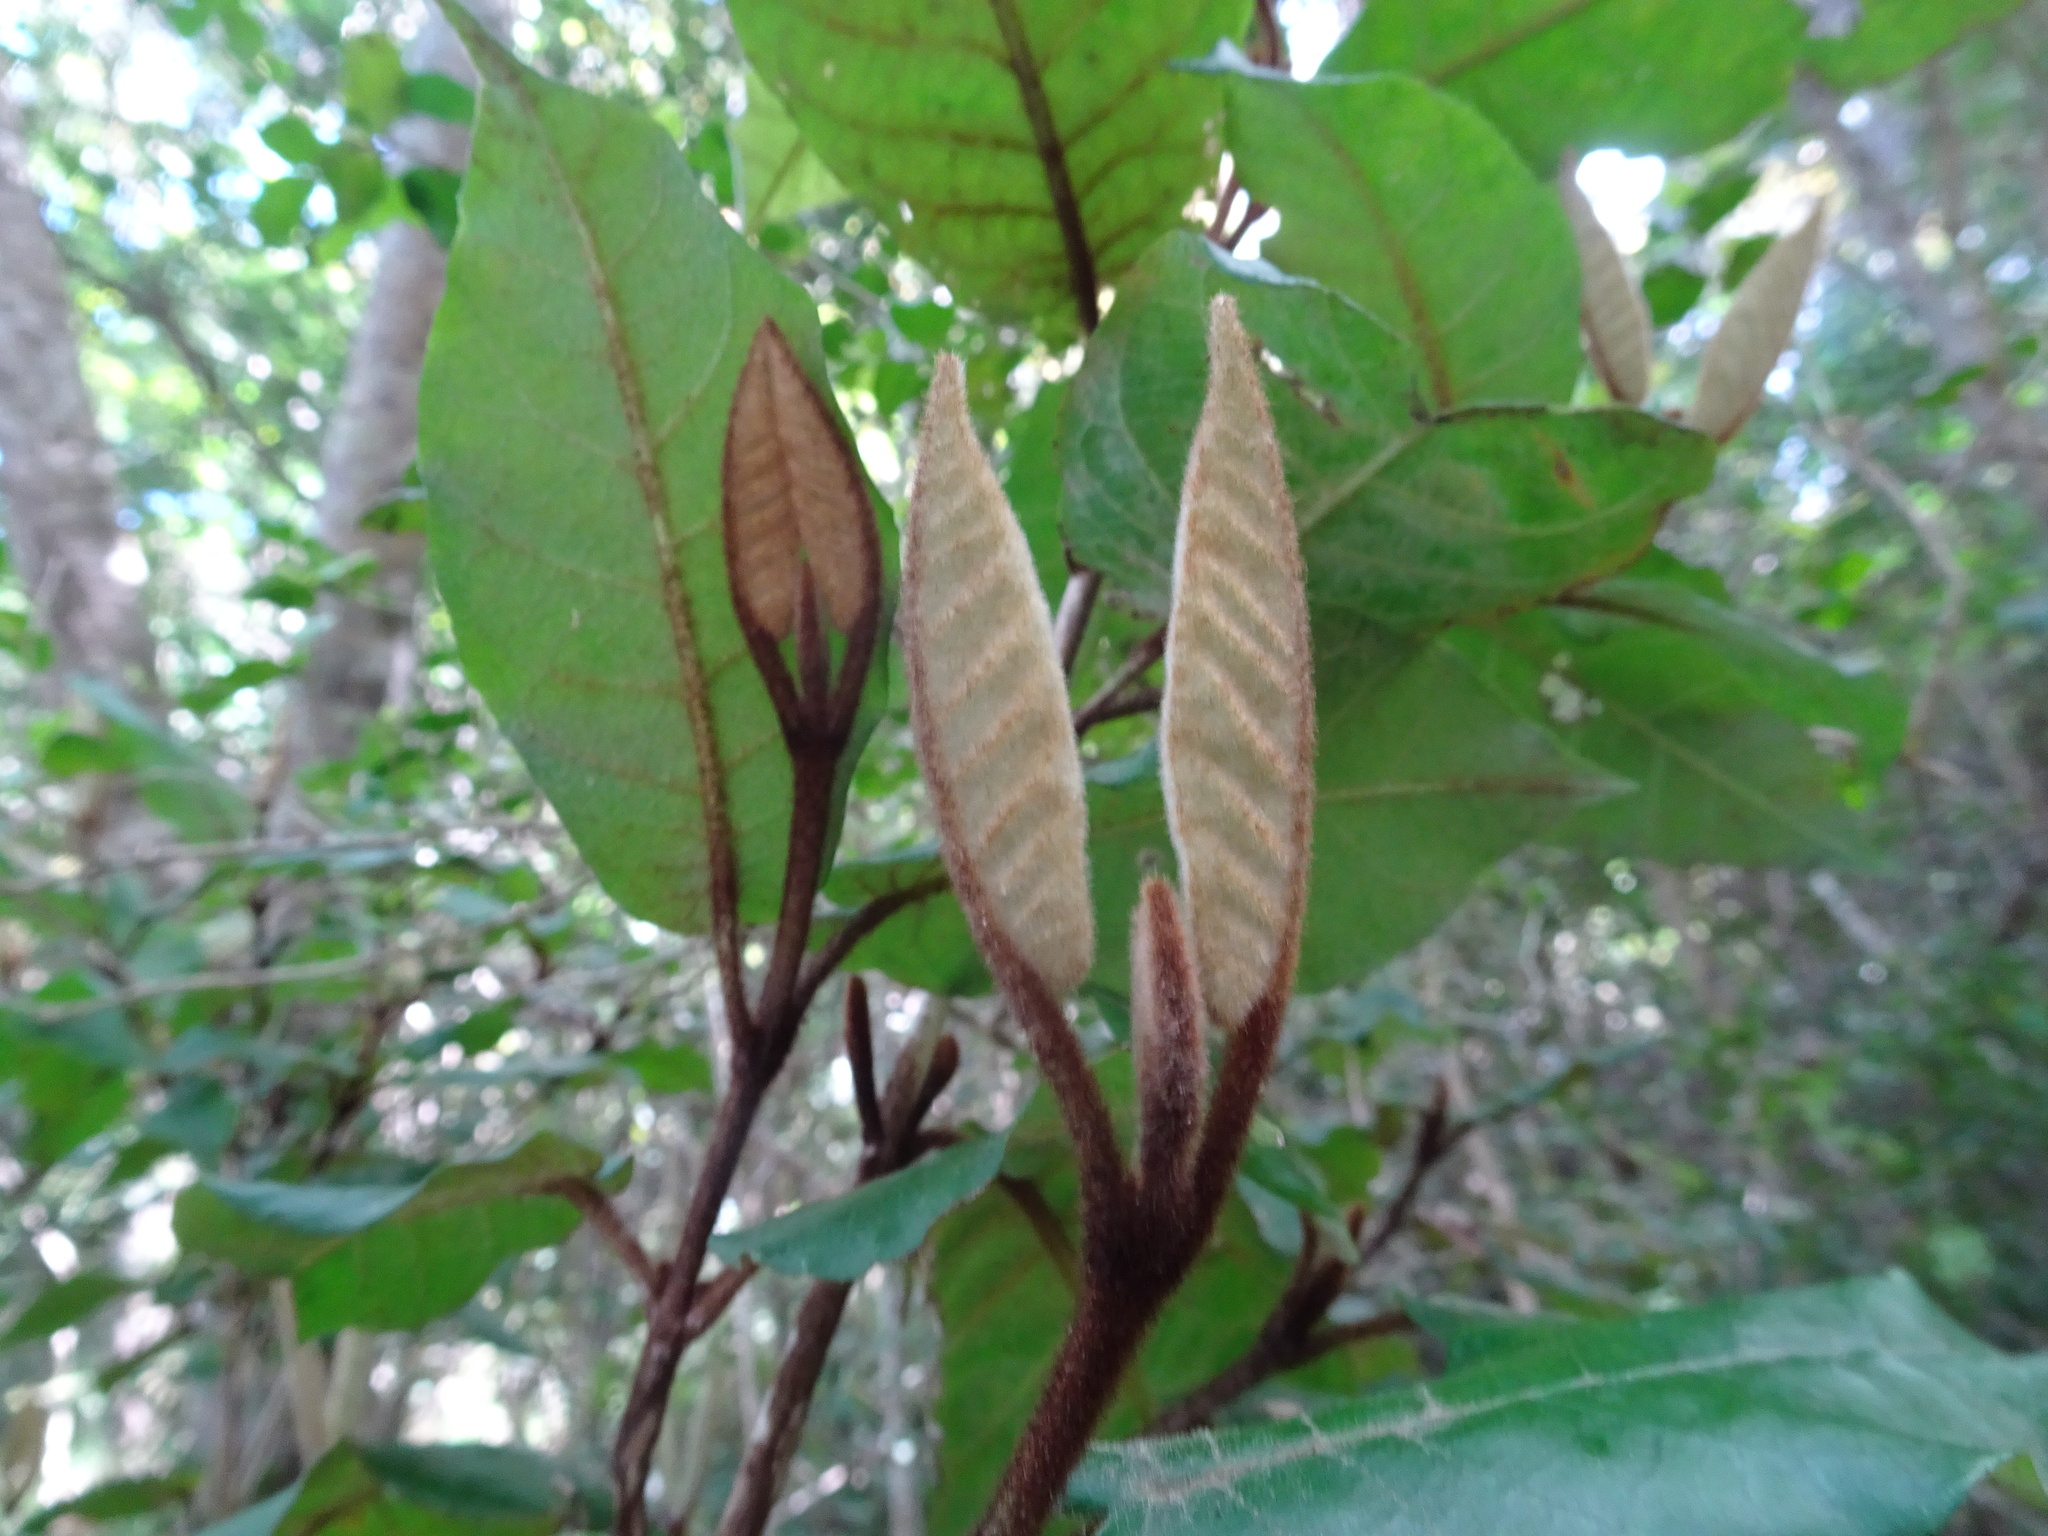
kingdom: Plantae
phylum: Tracheophyta
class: Magnoliopsida
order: Saxifragales
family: Hamamelidaceae
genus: Trichocladus
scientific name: Trichocladus crinitus
